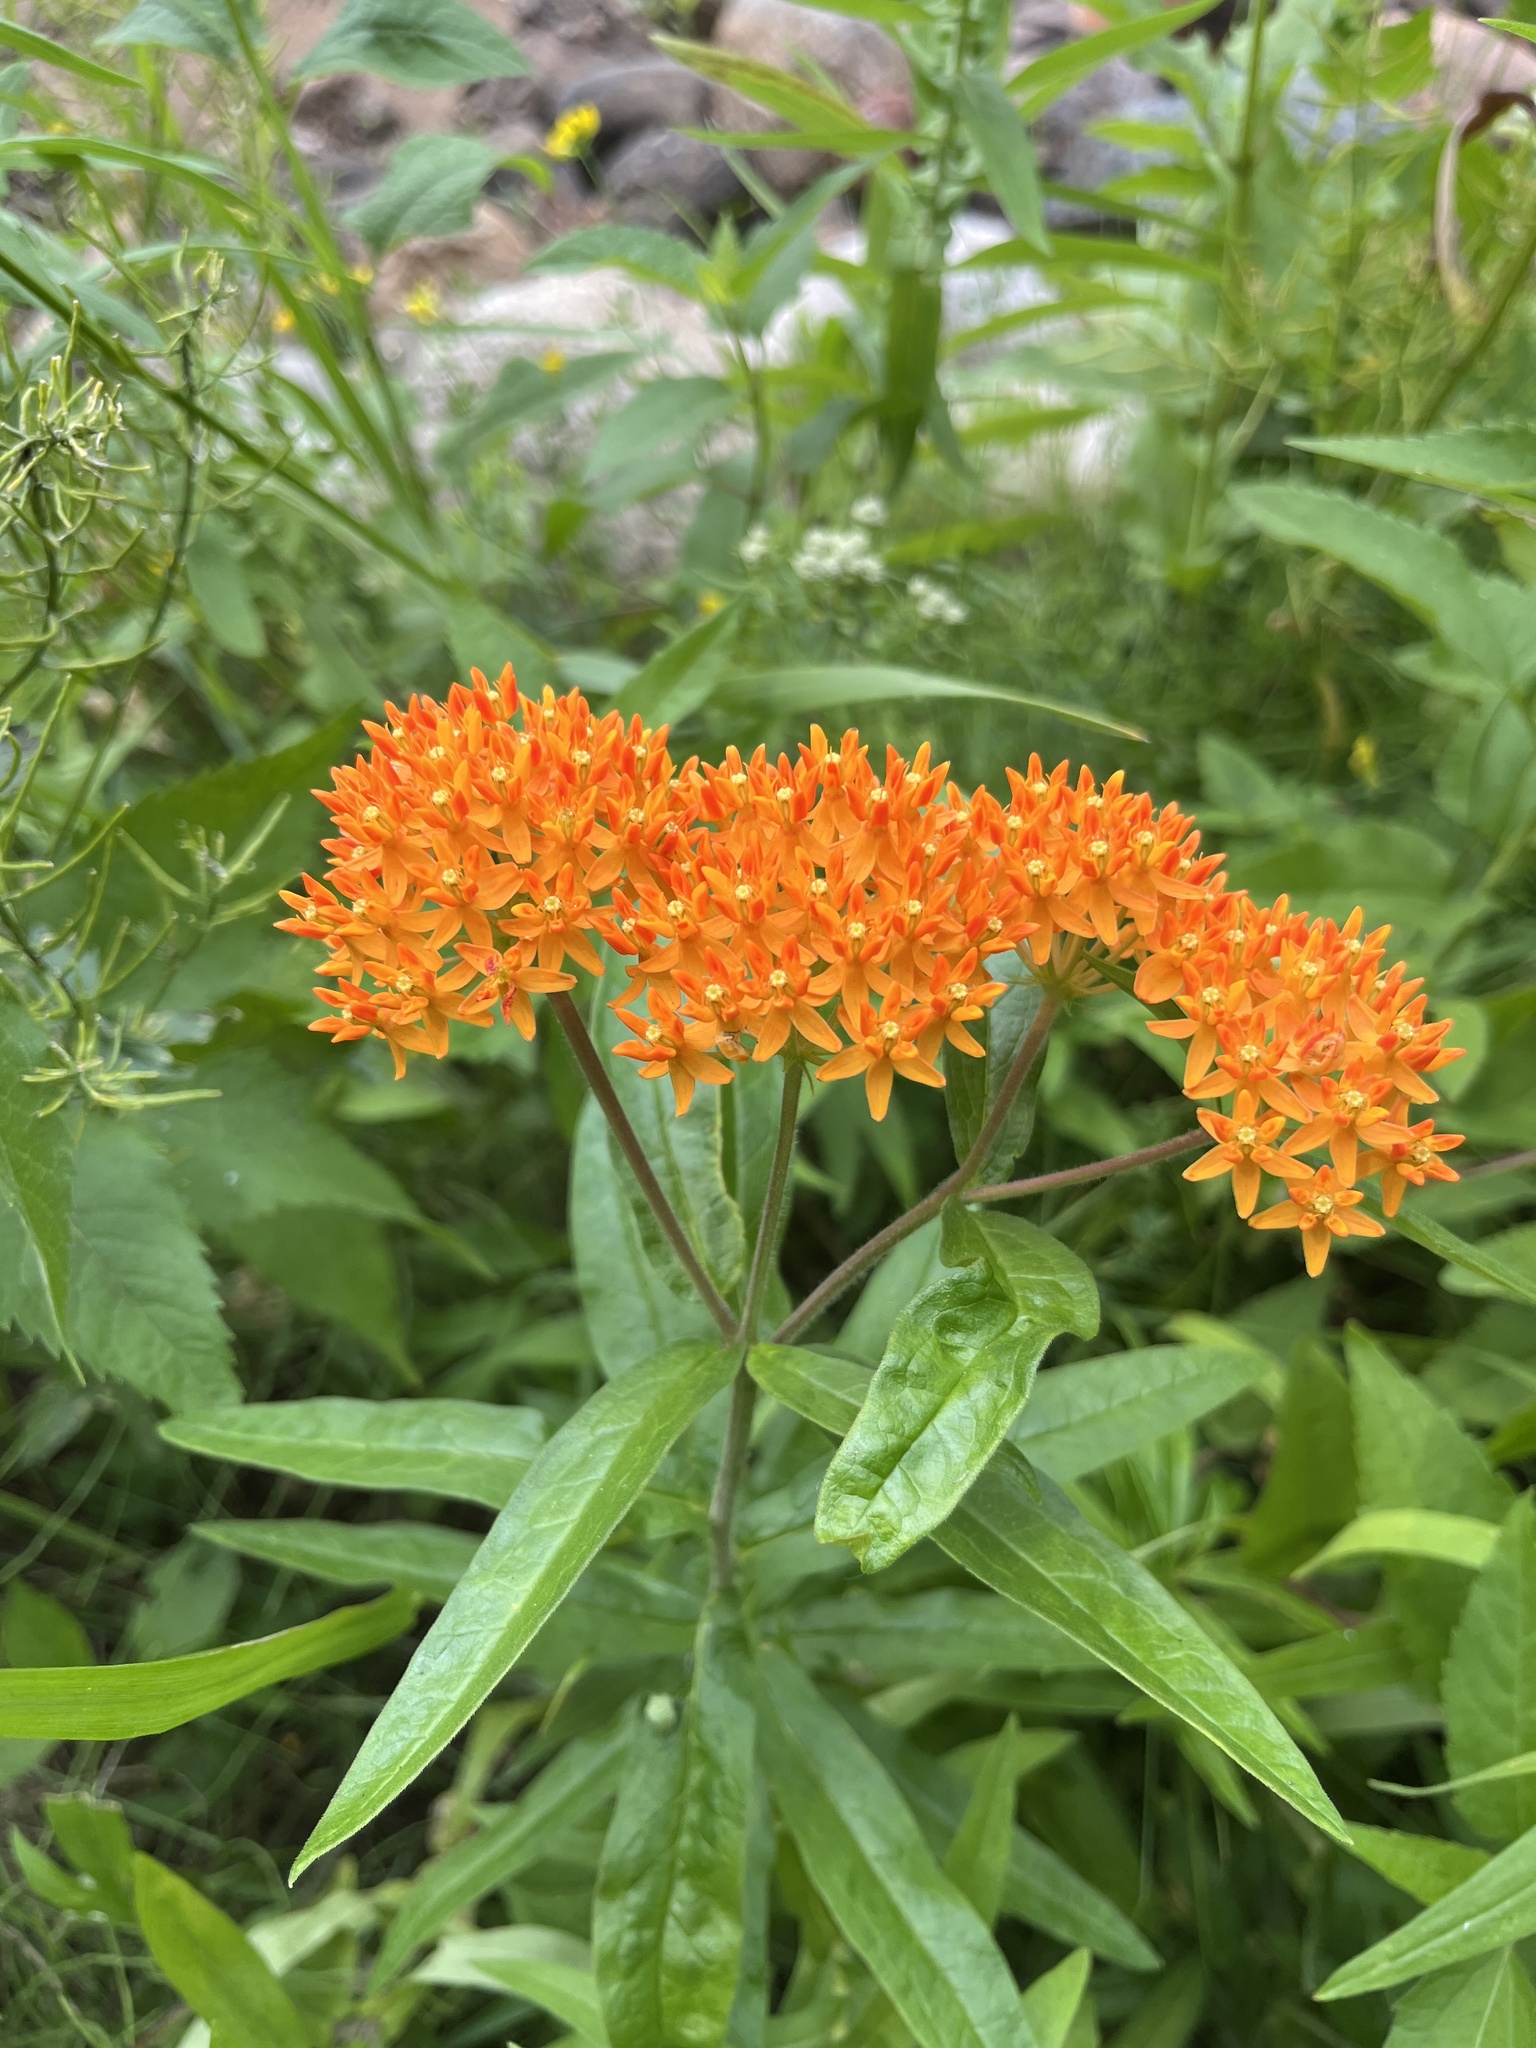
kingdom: Plantae
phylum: Tracheophyta
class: Magnoliopsida
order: Gentianales
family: Apocynaceae
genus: Asclepias
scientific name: Asclepias tuberosa
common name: Butterfly milkweed
